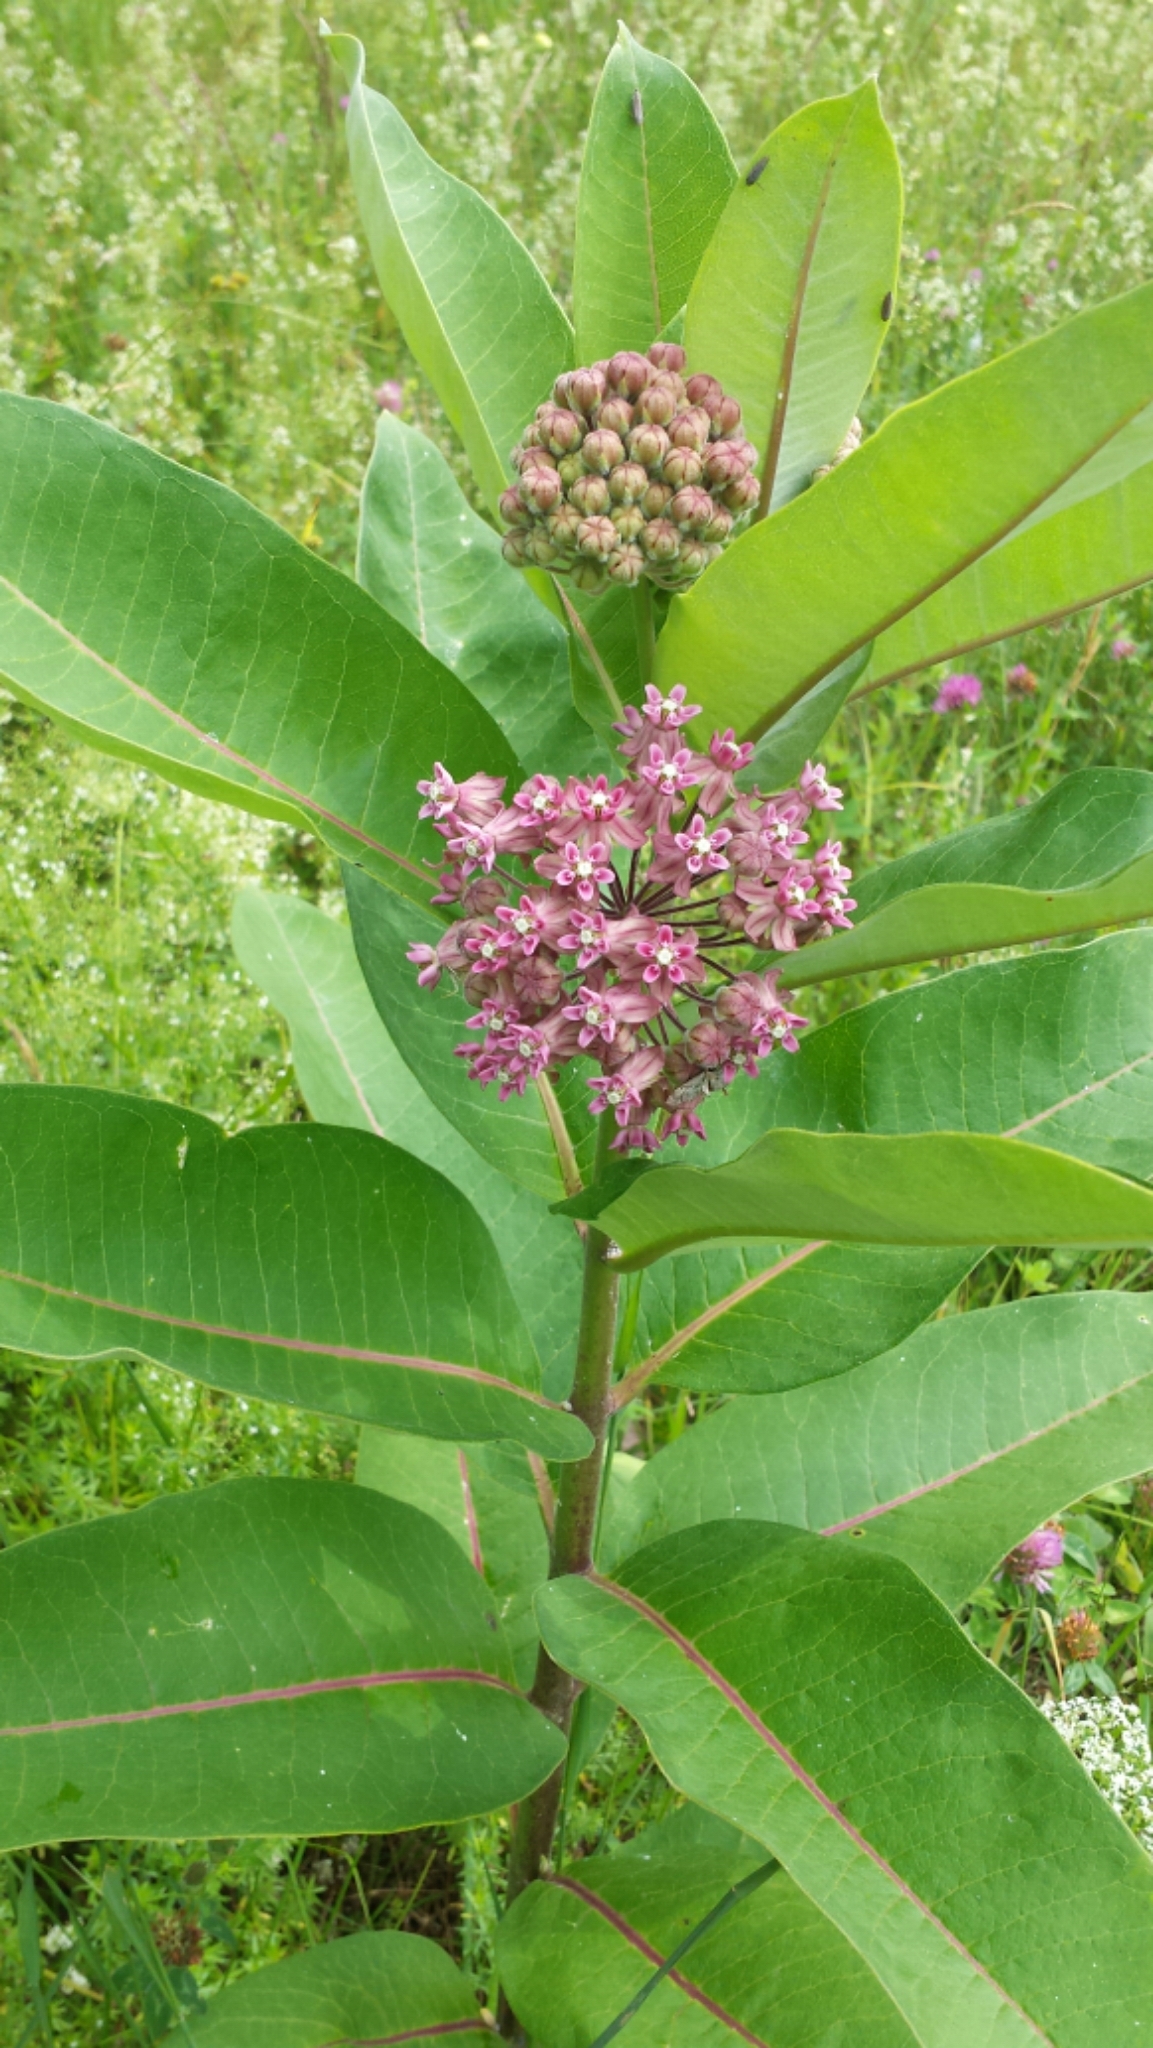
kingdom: Plantae
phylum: Tracheophyta
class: Magnoliopsida
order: Gentianales
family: Apocynaceae
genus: Asclepias
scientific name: Asclepias syriaca
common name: Common milkweed
